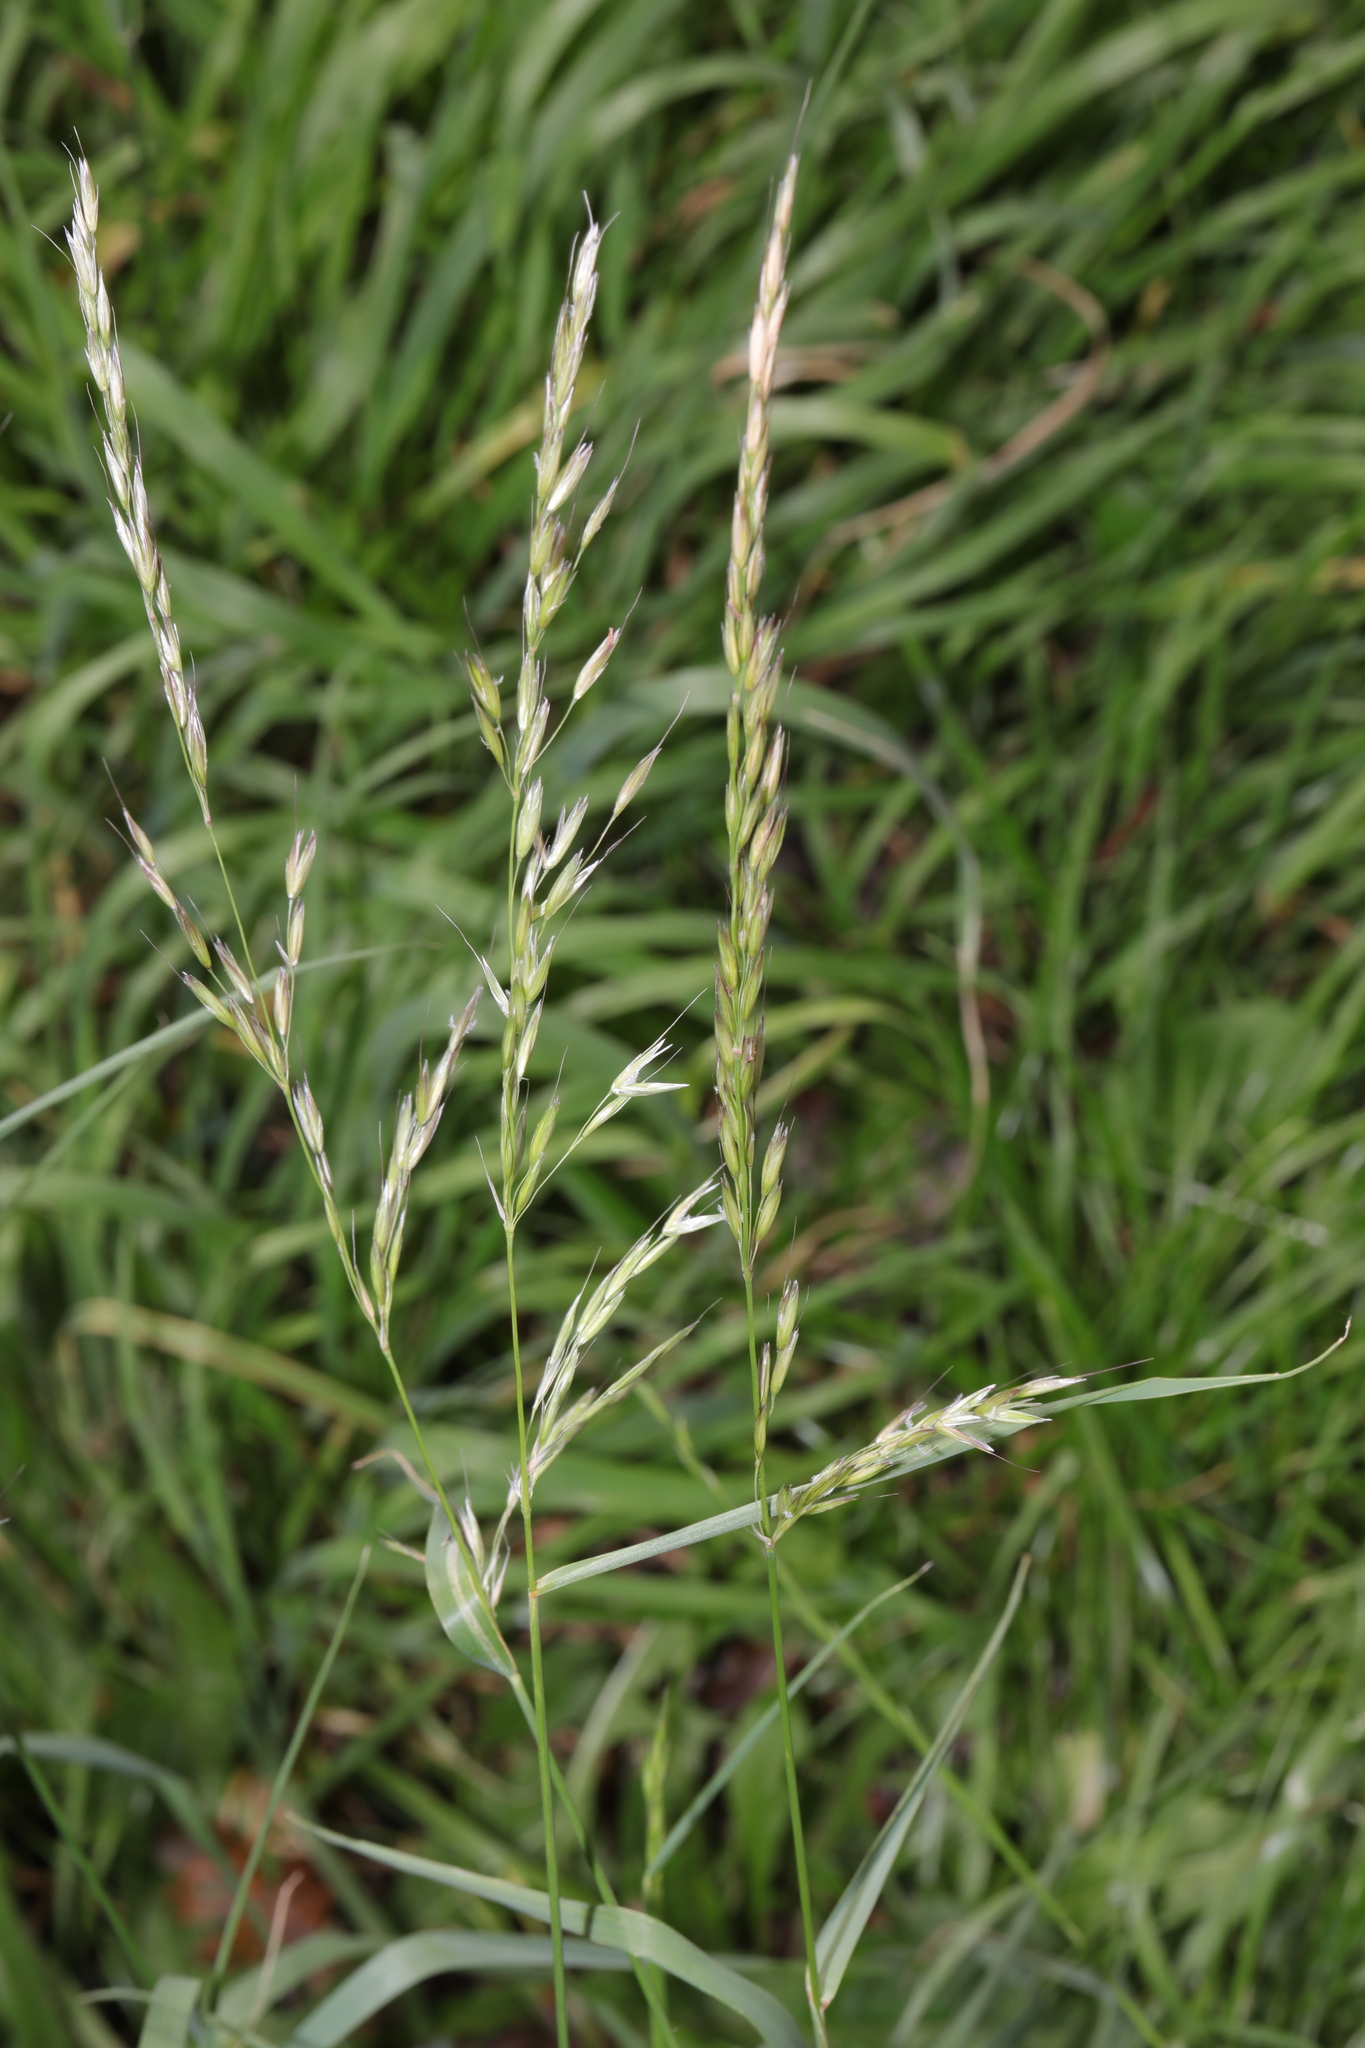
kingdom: Plantae
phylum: Tracheophyta
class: Liliopsida
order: Poales
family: Poaceae
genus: Arrhenatherum
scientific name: Arrhenatherum elatius
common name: Tall oatgrass
